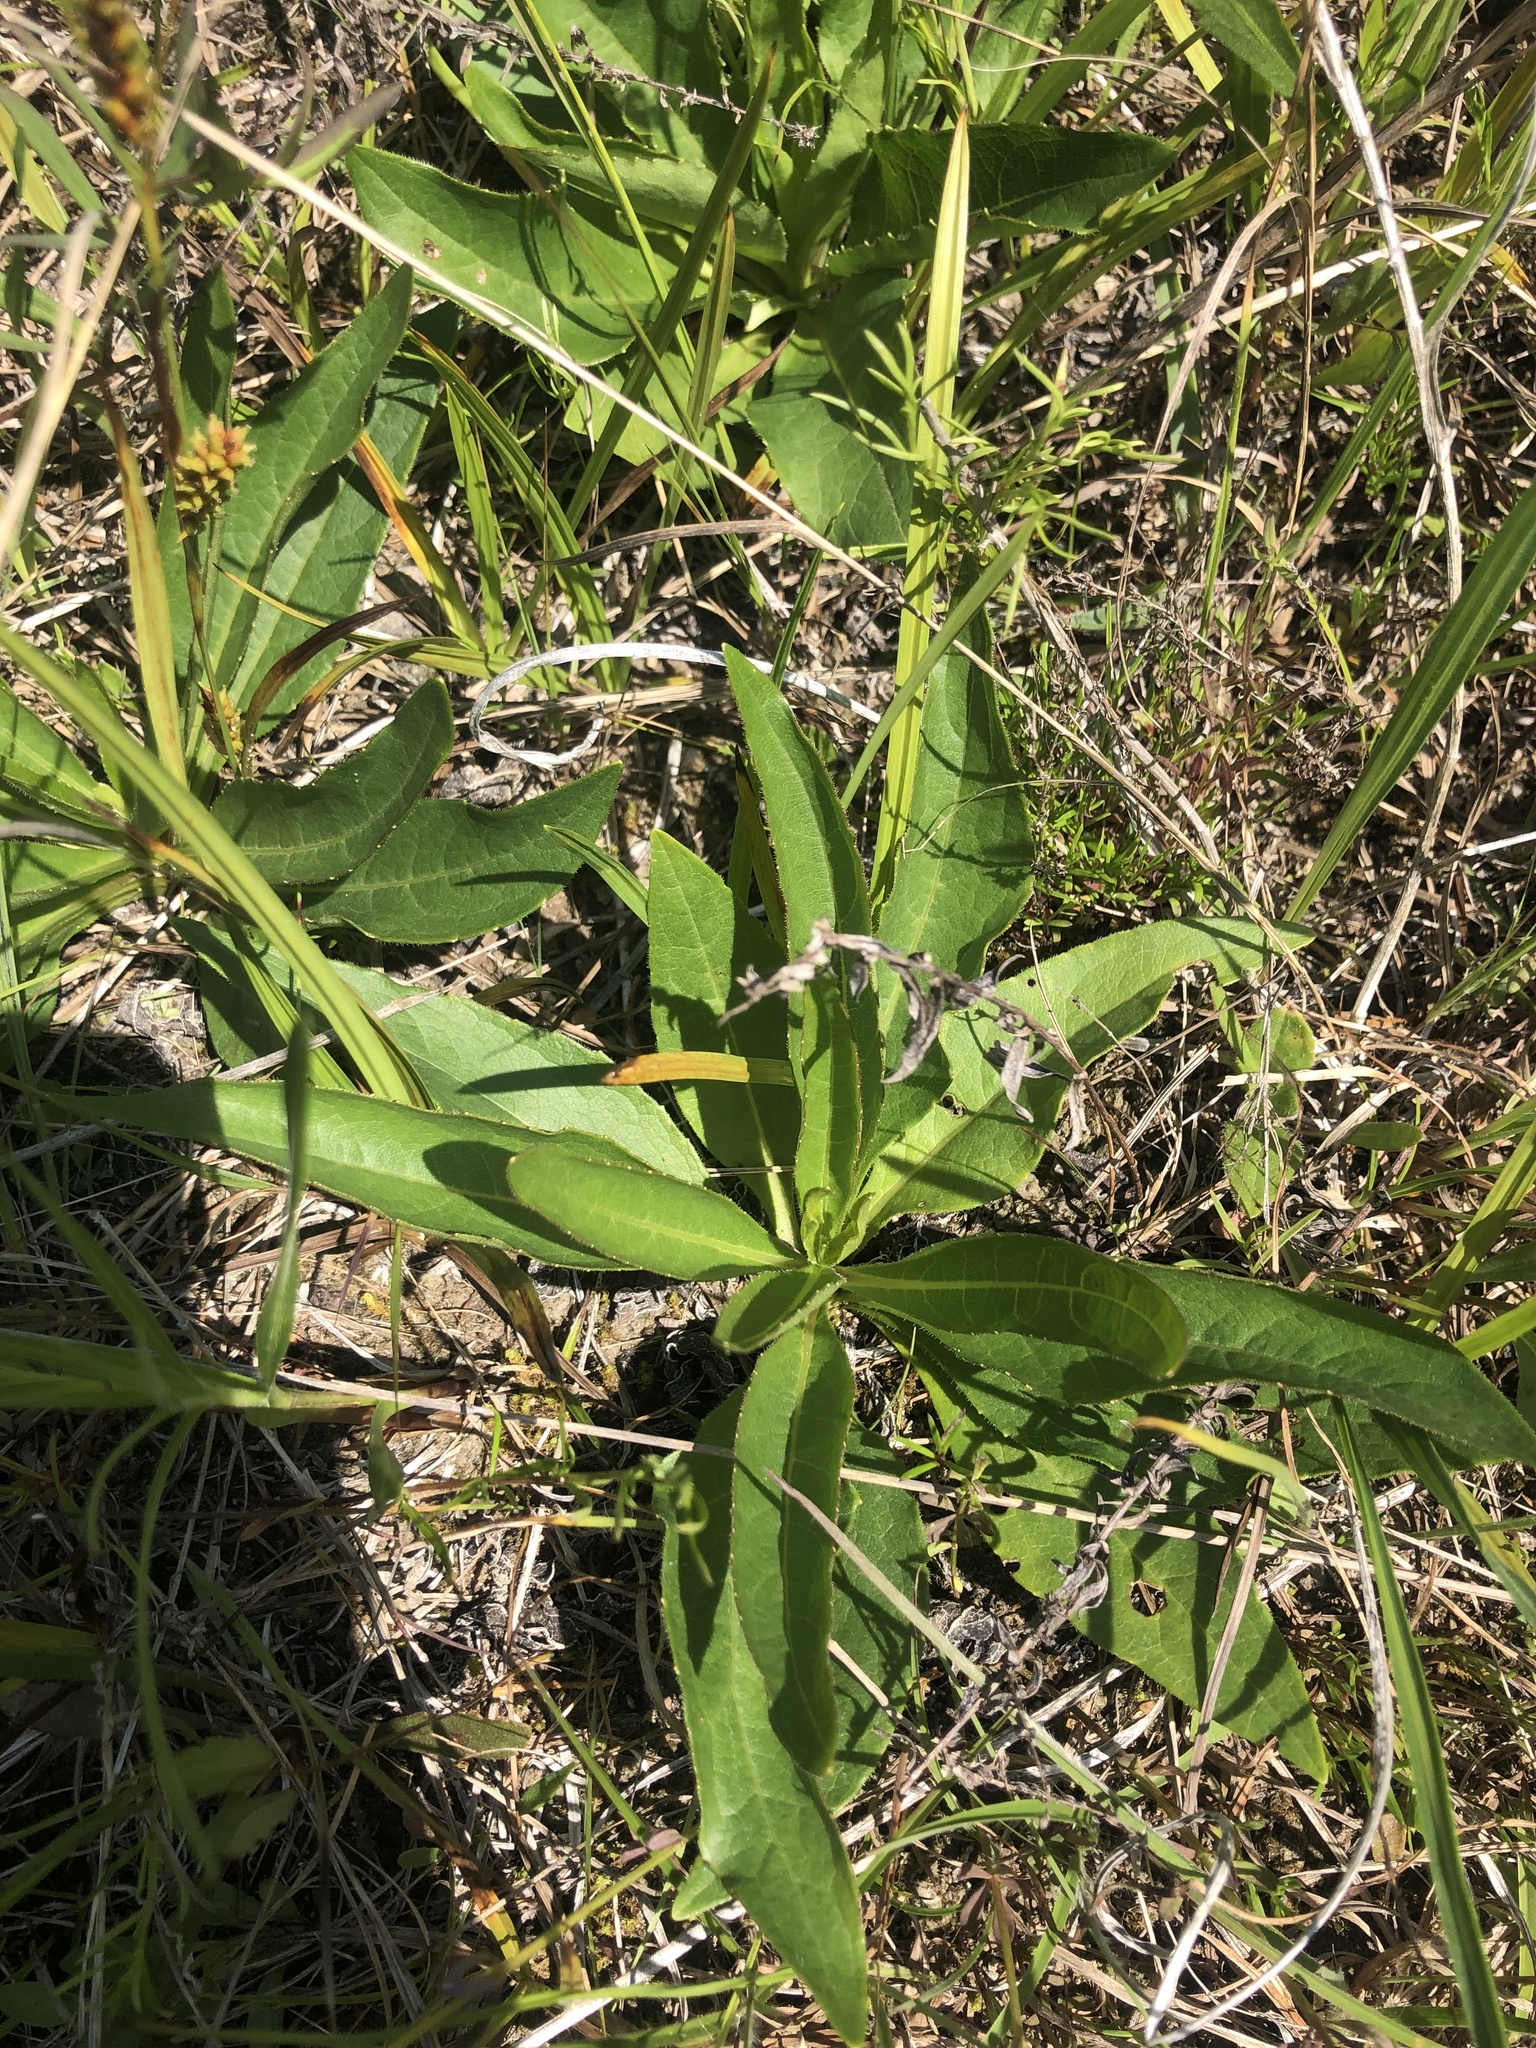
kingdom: Plantae
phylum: Tracheophyta
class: Magnoliopsida
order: Asterales
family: Asteraceae
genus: Silphium
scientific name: Silphium confertifolium
